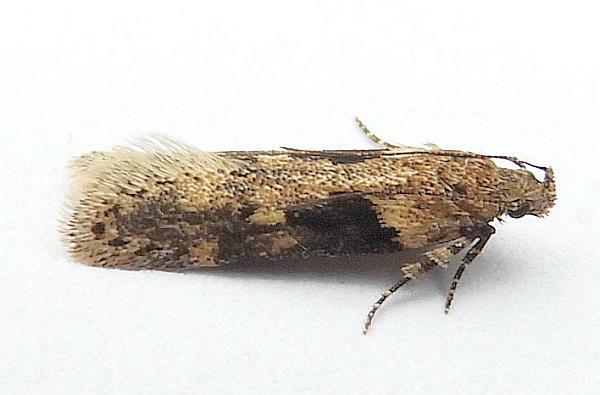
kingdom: Animalia
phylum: Arthropoda
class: Insecta
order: Lepidoptera
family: Gelechiidae
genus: Chionodes
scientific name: Chionodes mediofuscella
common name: Black-smudged chionodes moth
